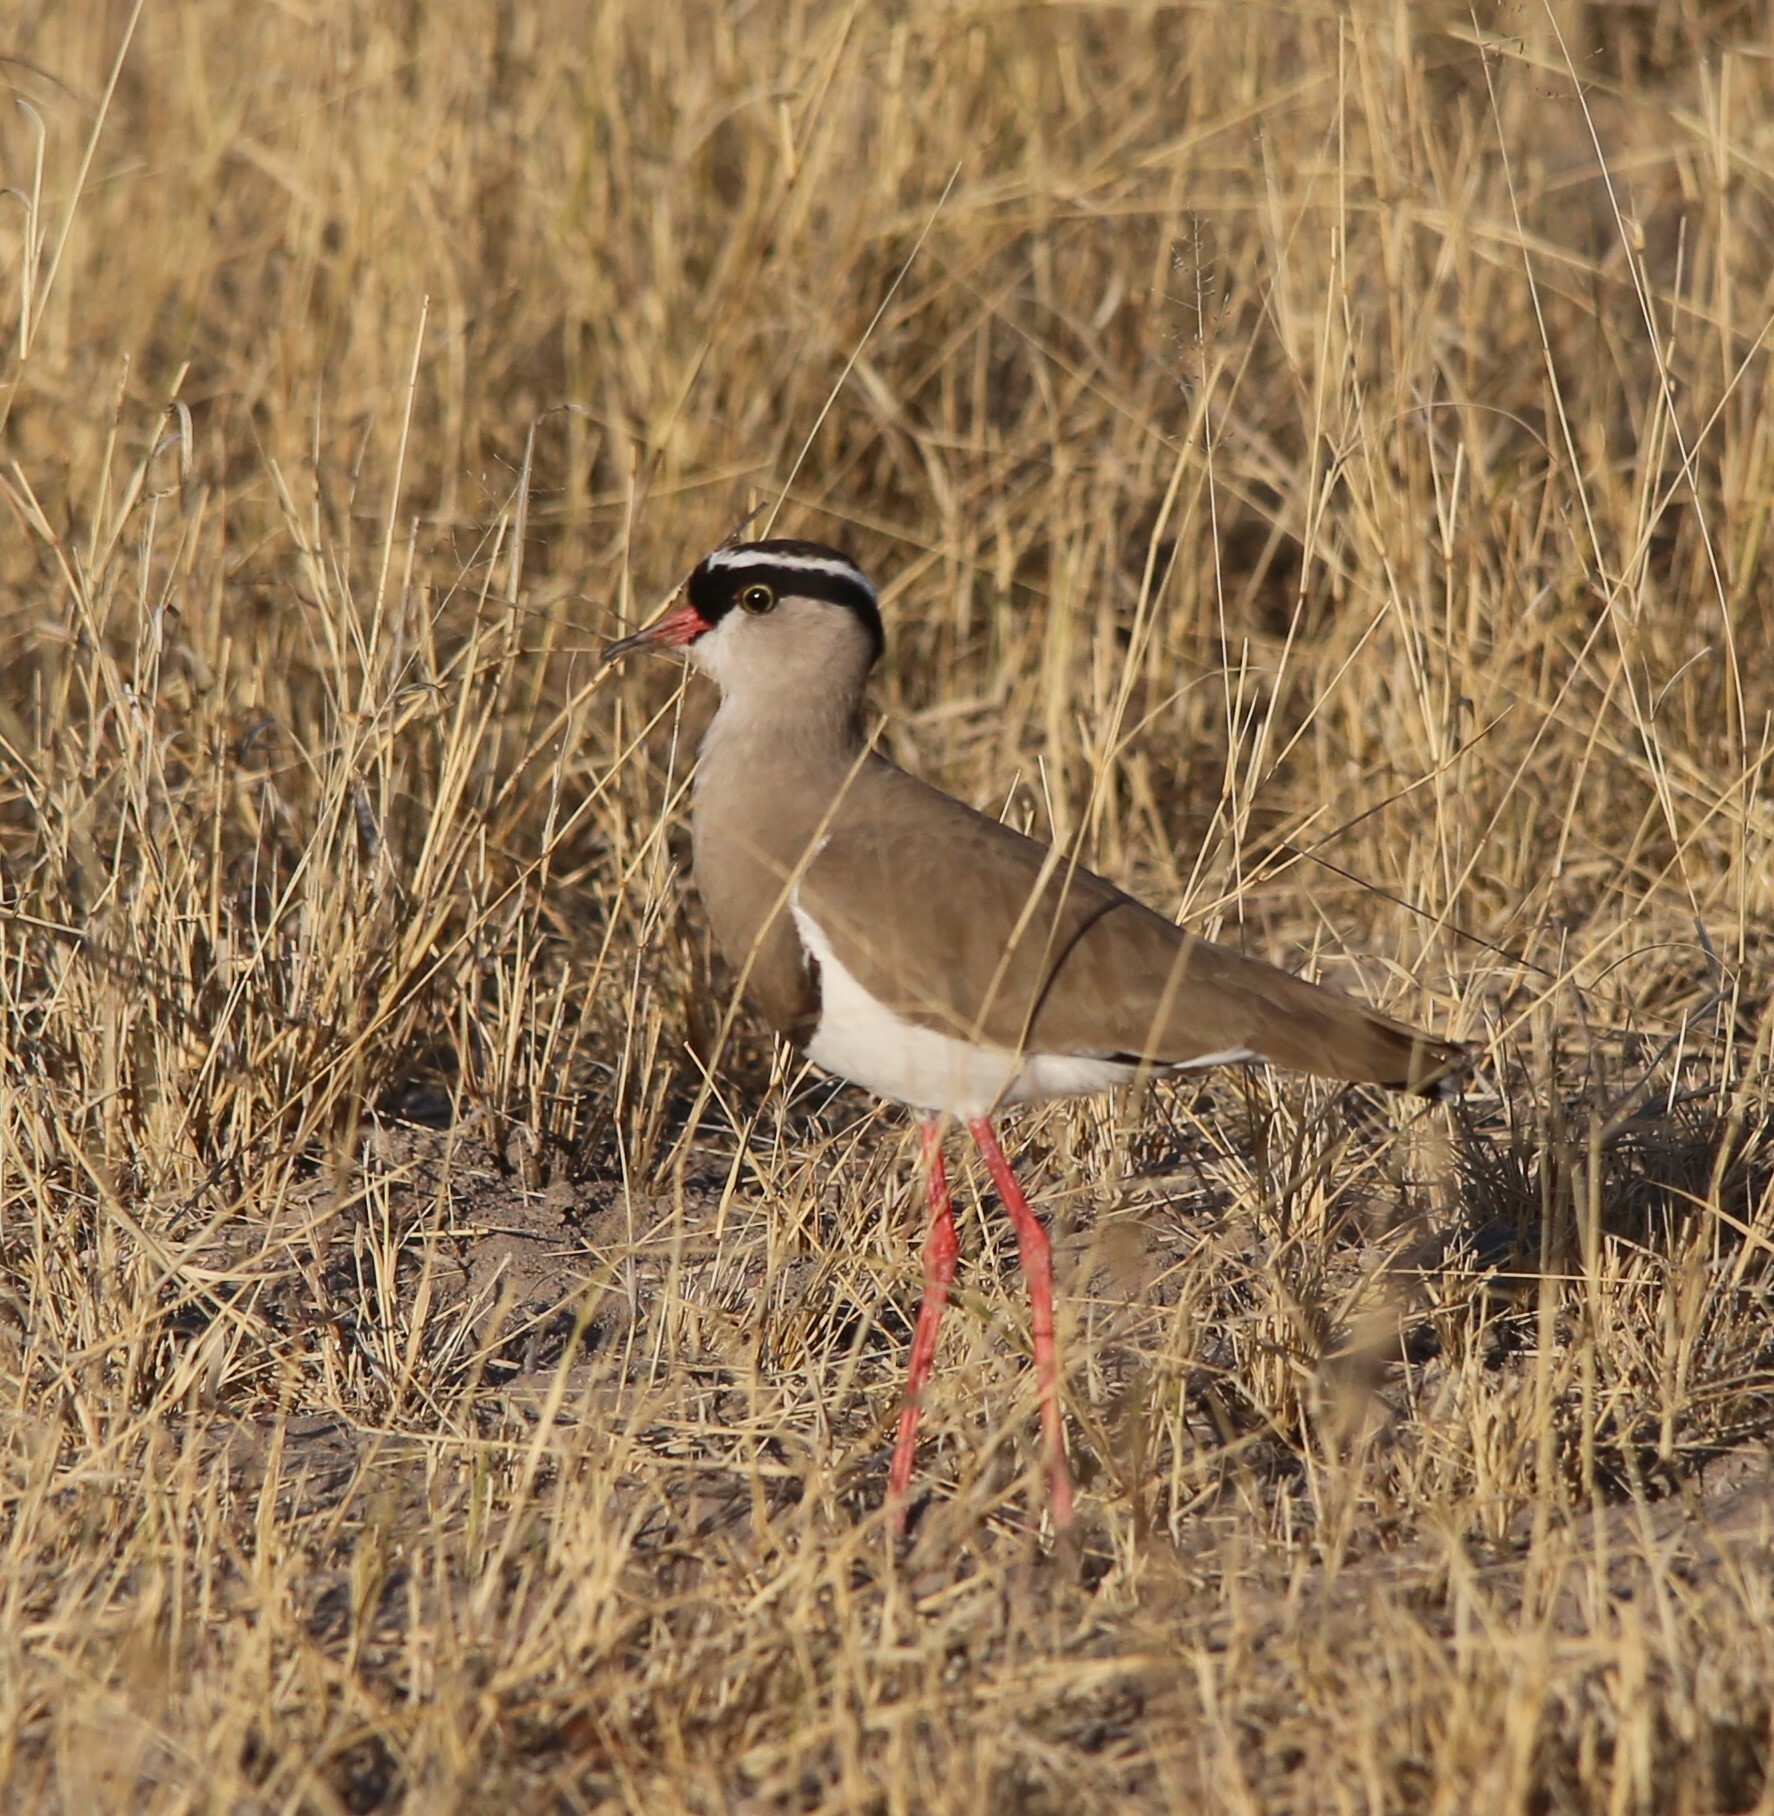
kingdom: Animalia
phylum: Chordata
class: Aves
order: Charadriiformes
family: Charadriidae
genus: Vanellus
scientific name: Vanellus coronatus
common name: Crowned lapwing
